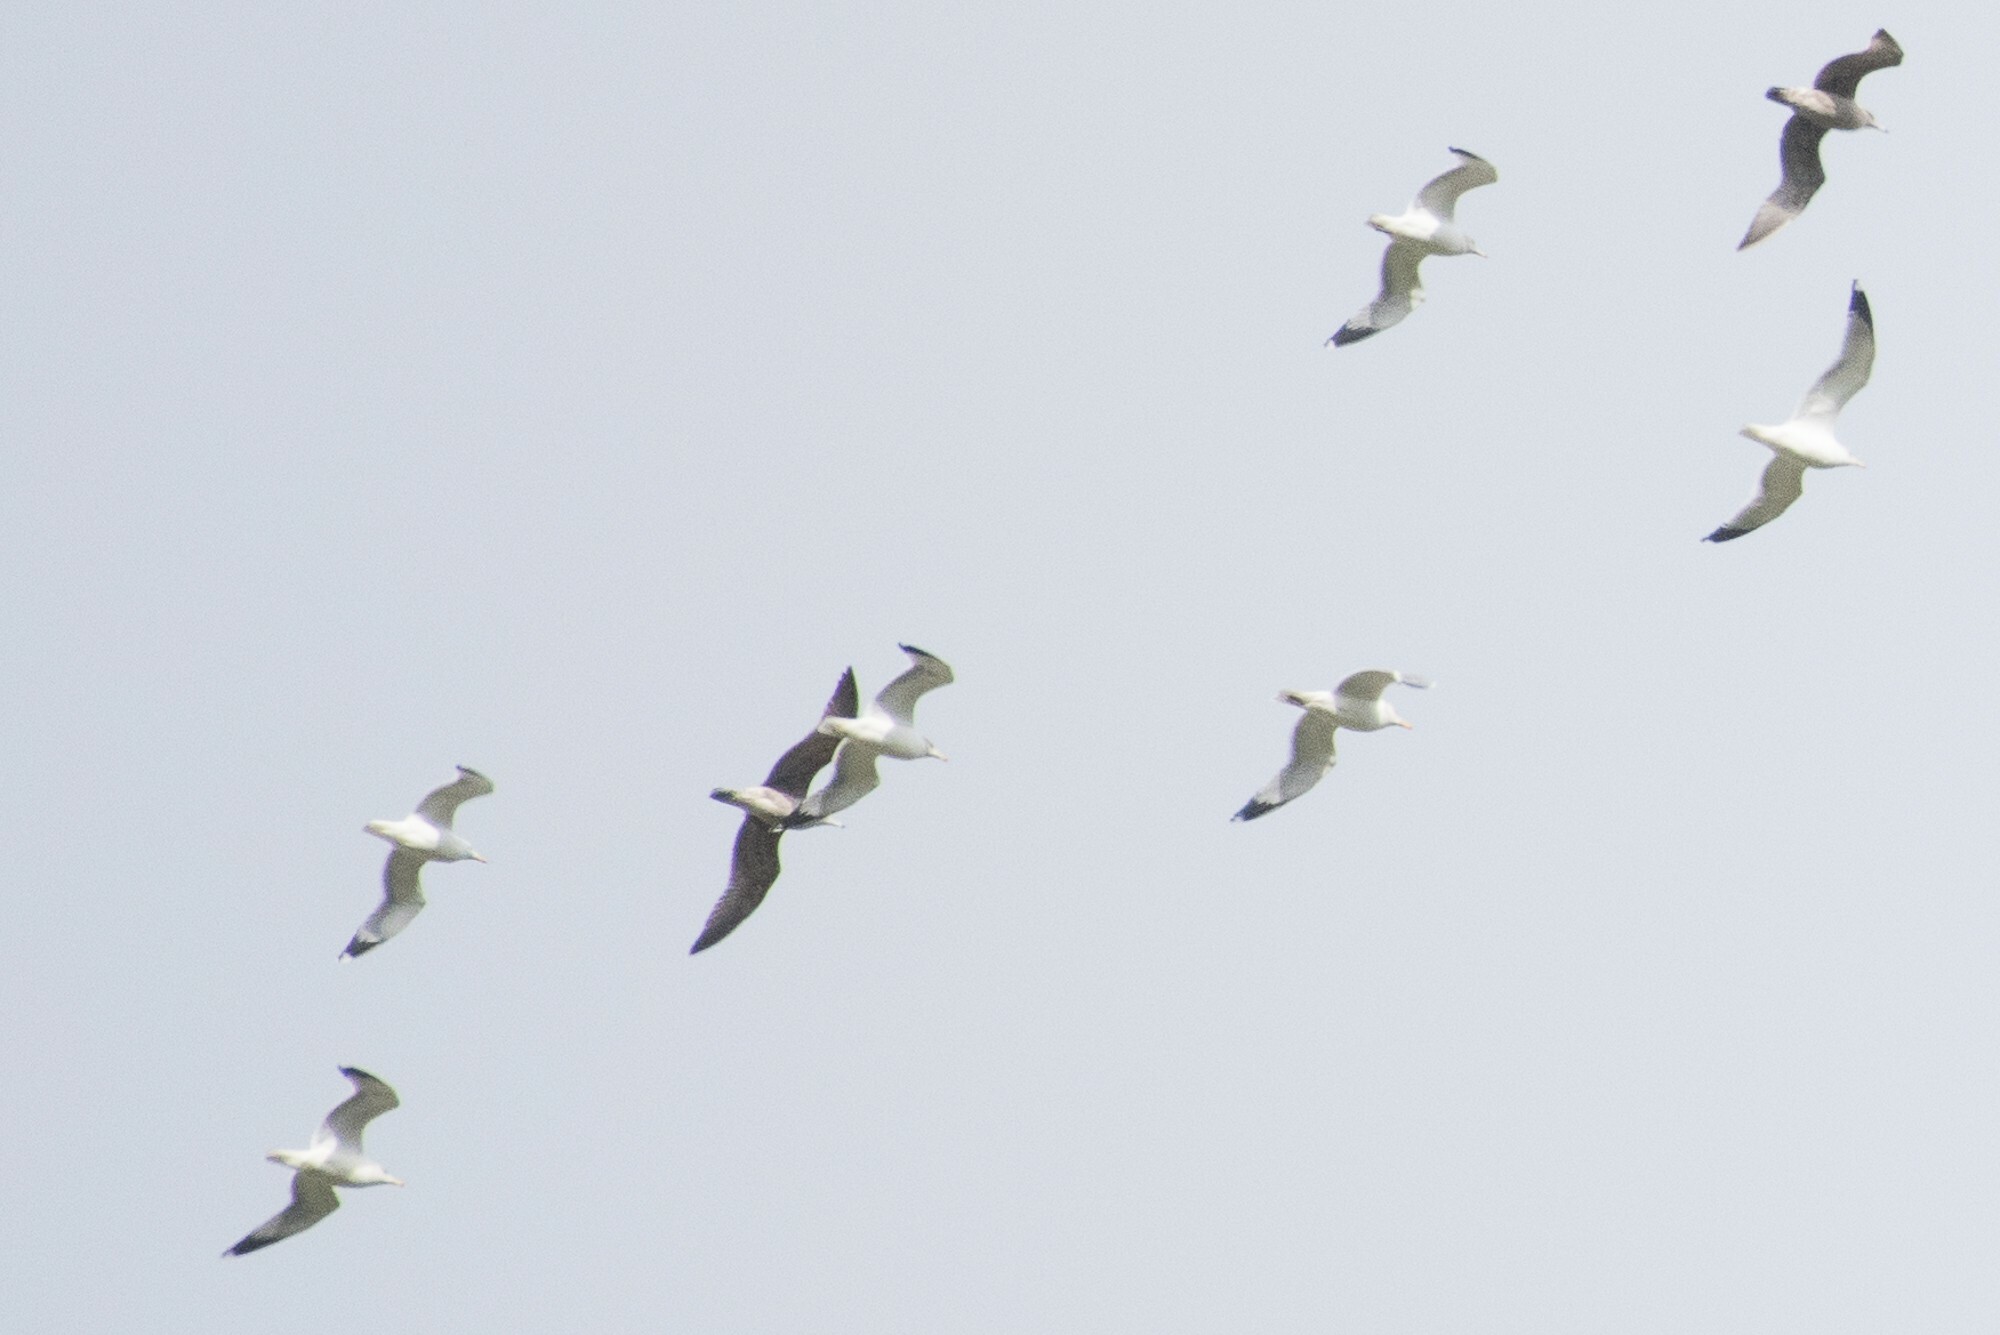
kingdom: Animalia
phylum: Chordata
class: Aves
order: Charadriiformes
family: Laridae
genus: Larus
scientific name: Larus californicus
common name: California gull
